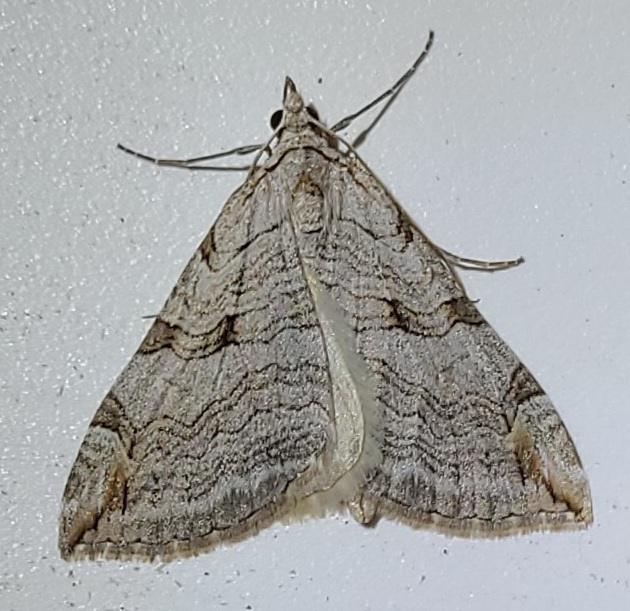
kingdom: Animalia
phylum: Arthropoda
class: Insecta
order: Lepidoptera
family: Geometridae
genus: Aplocera
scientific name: Aplocera plagiata
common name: Treble-bar
